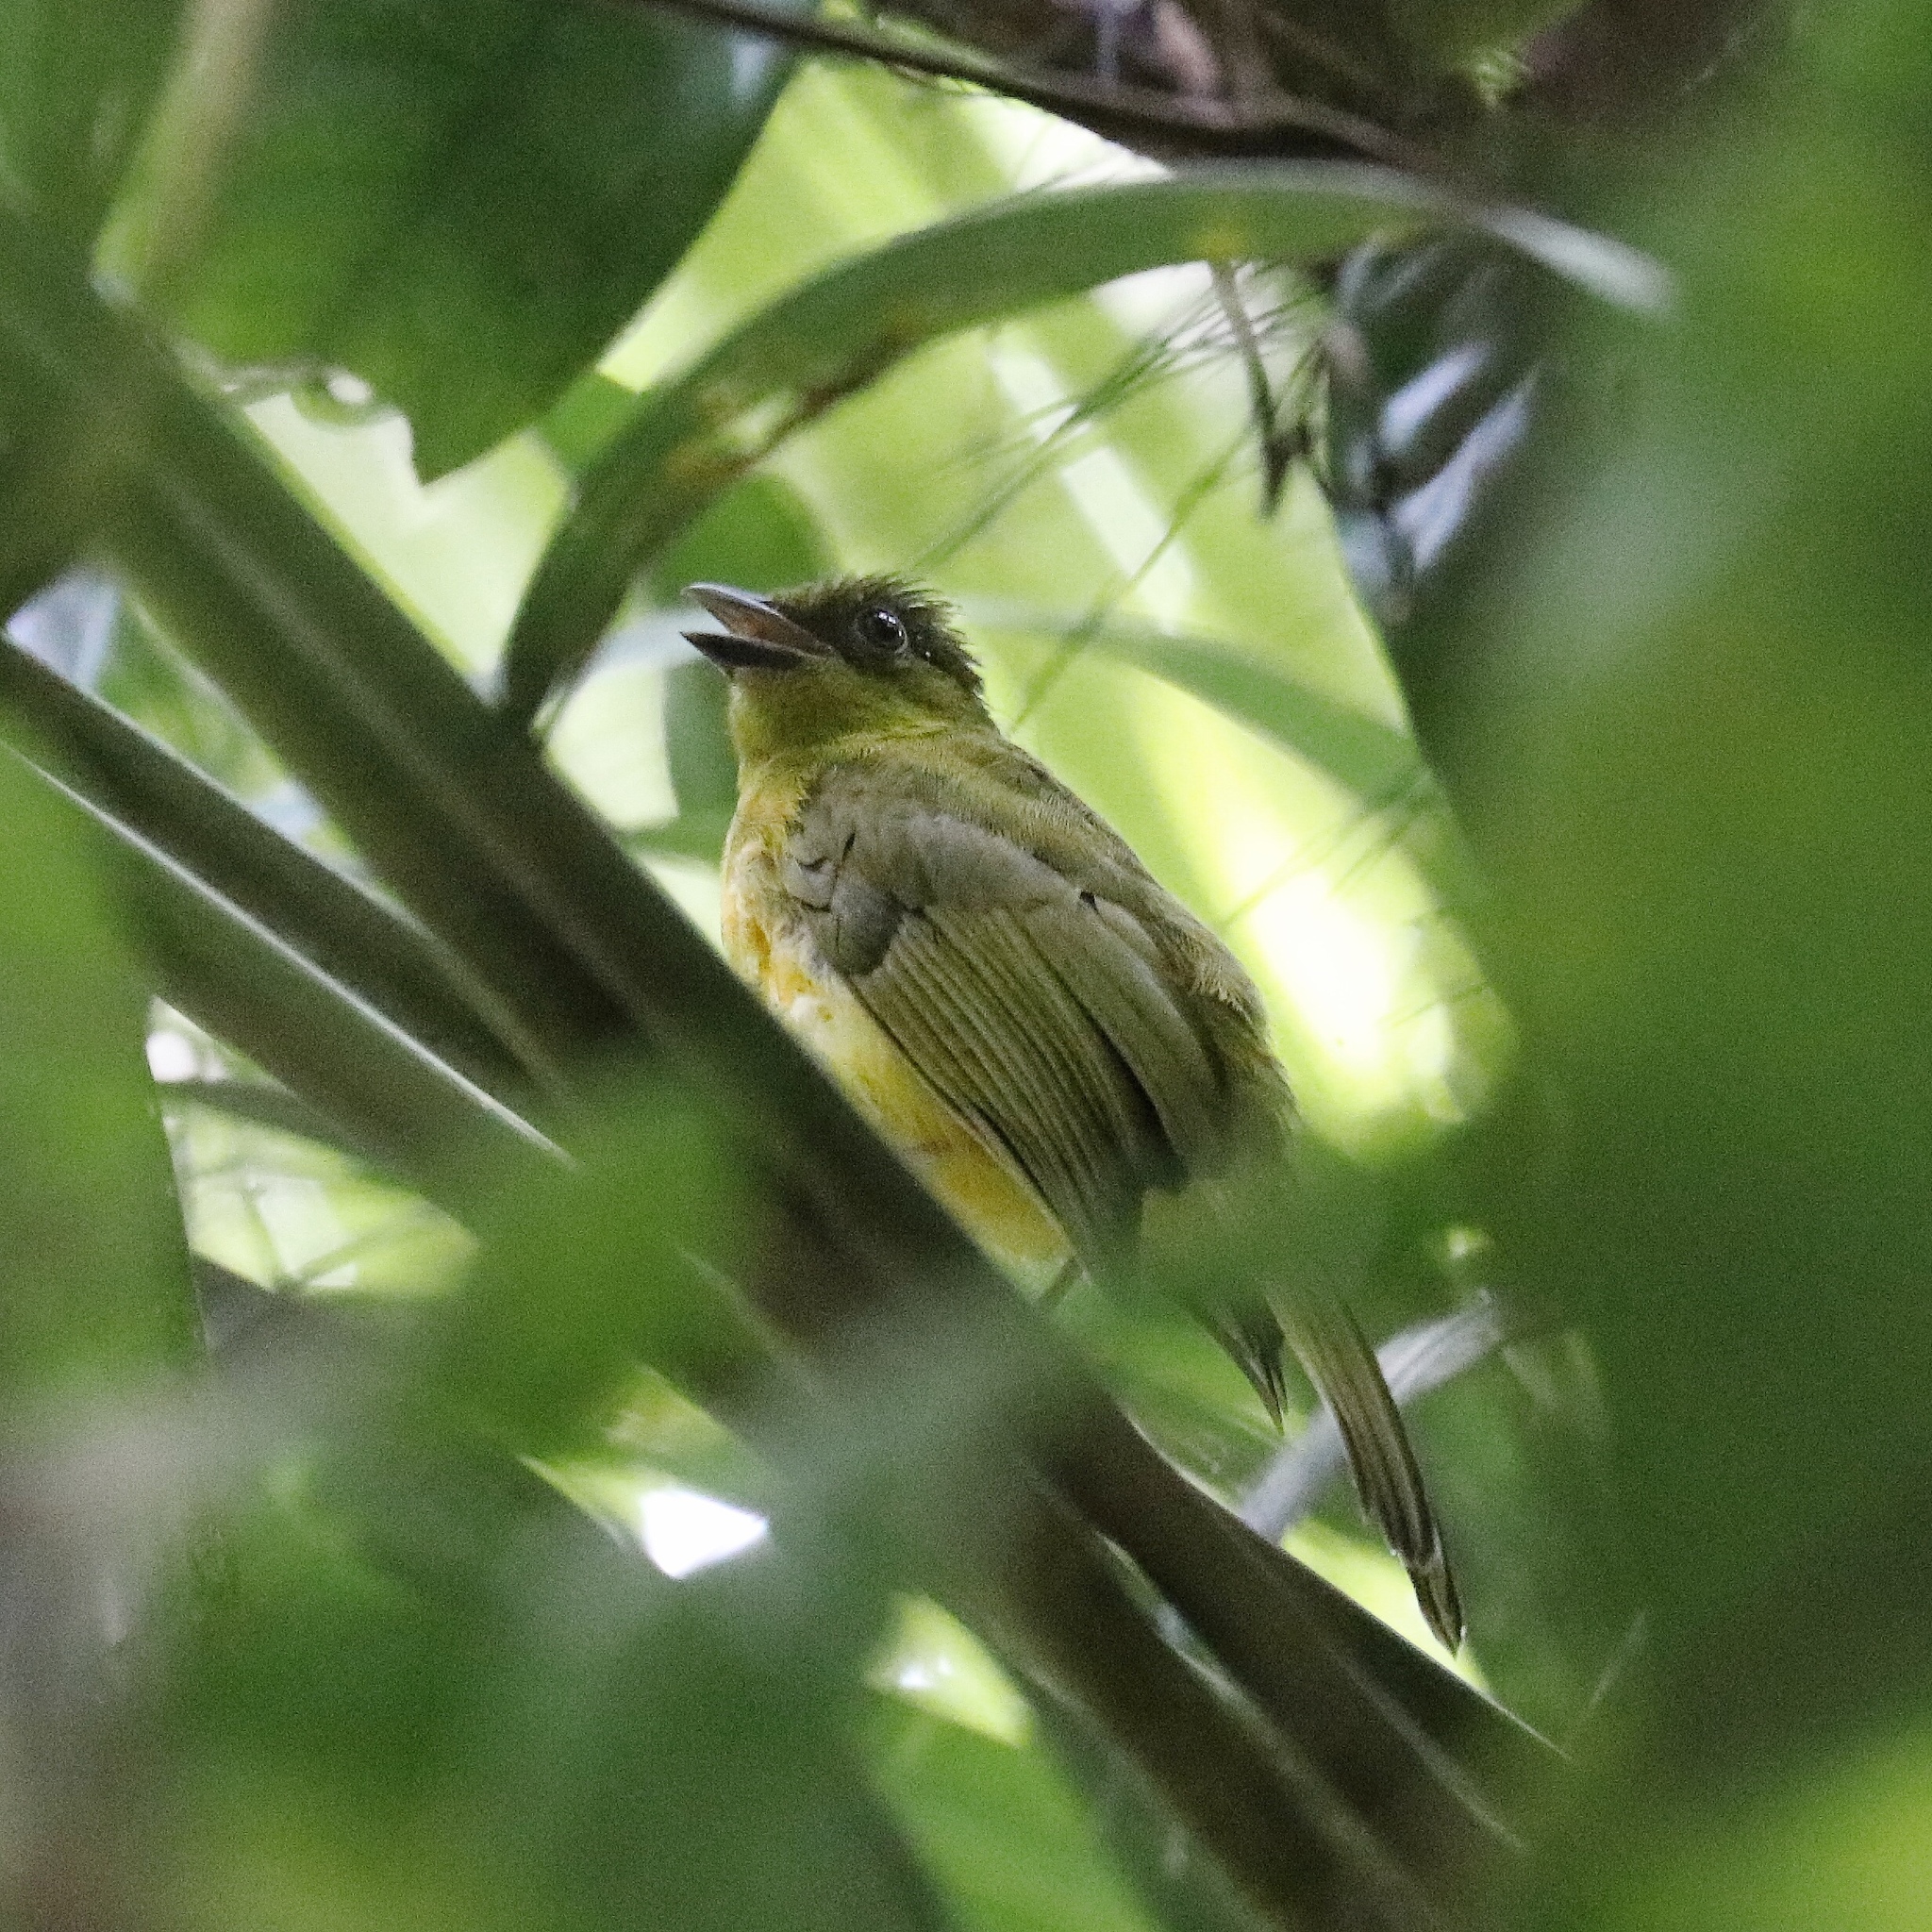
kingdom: Animalia
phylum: Chordata
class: Aves
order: Passeriformes
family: Cardinalidae
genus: Habia
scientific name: Habia fuscicauda
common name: Red-throated ant-tanager
